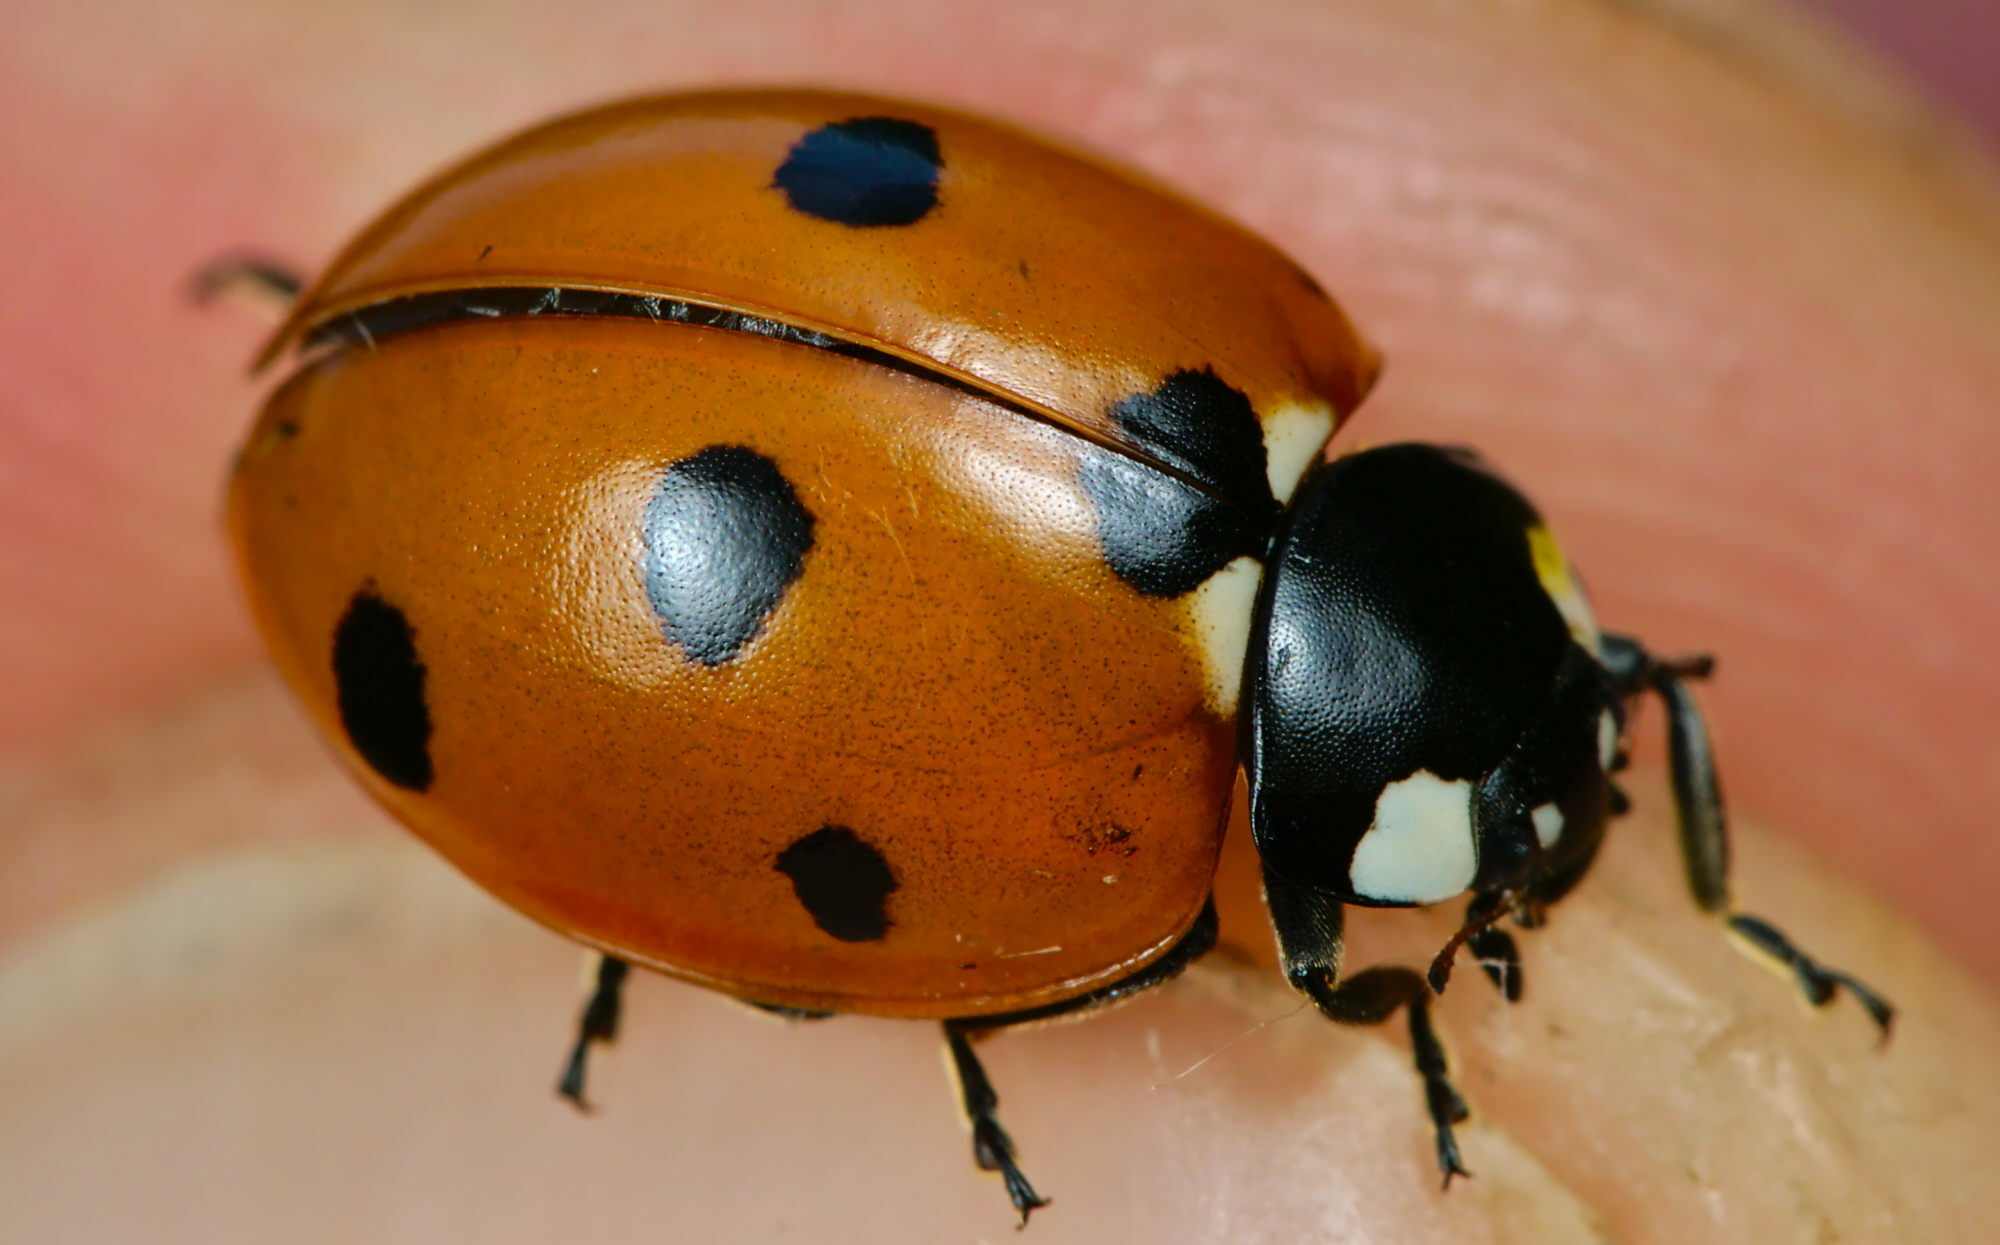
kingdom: Animalia
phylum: Arthropoda
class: Insecta
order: Coleoptera
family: Coccinellidae
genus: Coccinella
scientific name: Coccinella septempunctata
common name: Sevenspotted lady beetle
